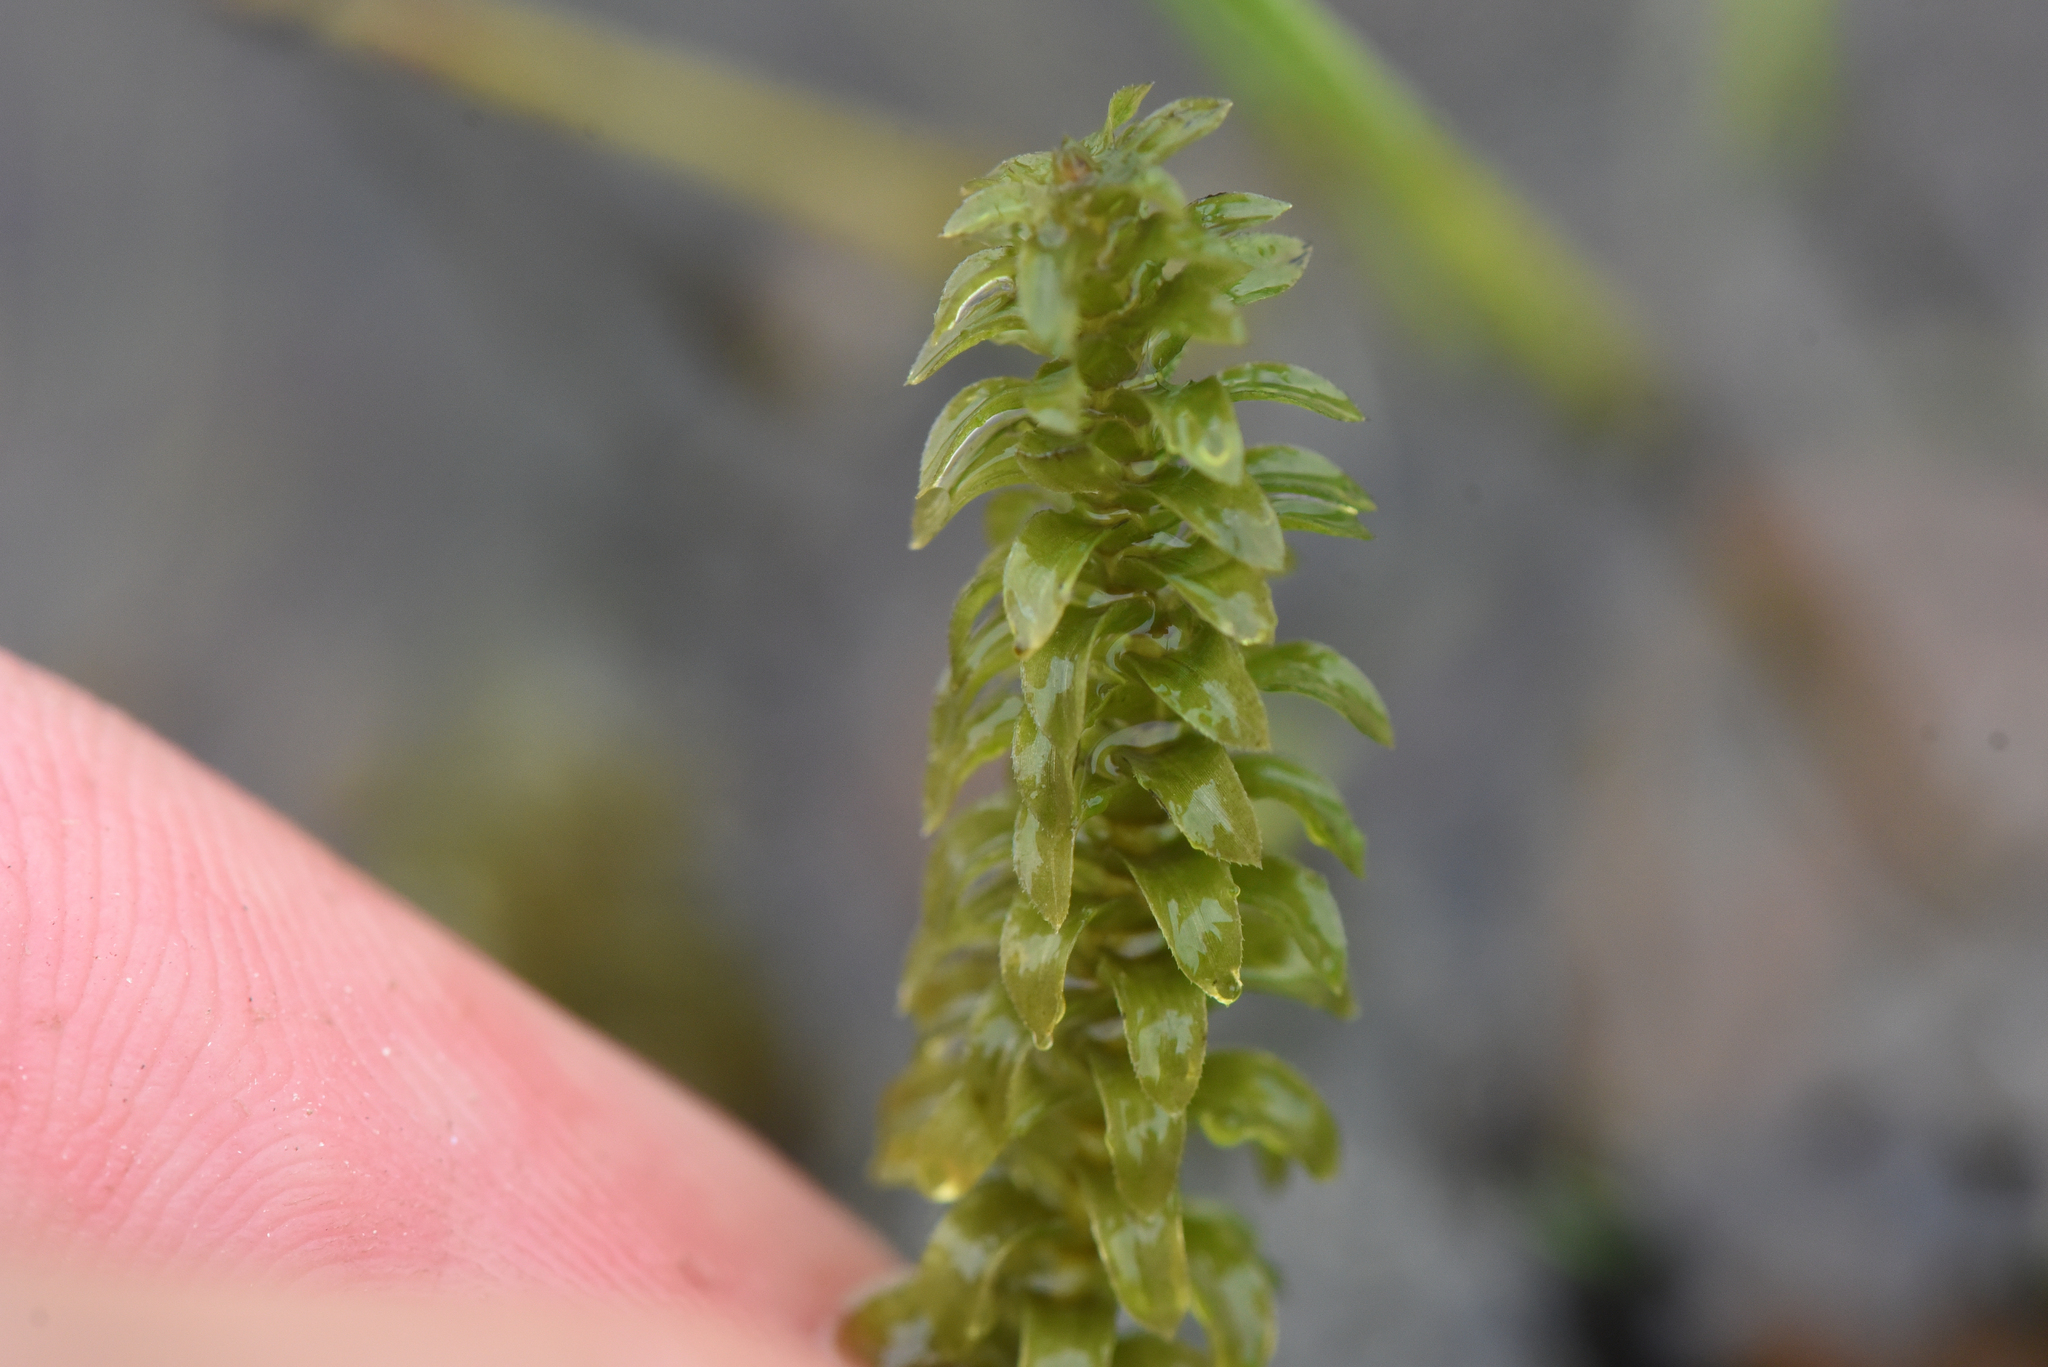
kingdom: Plantae
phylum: Tracheophyta
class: Liliopsida
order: Alismatales
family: Hydrocharitaceae
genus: Elodea
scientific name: Elodea canadensis
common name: Canadian waterweed
